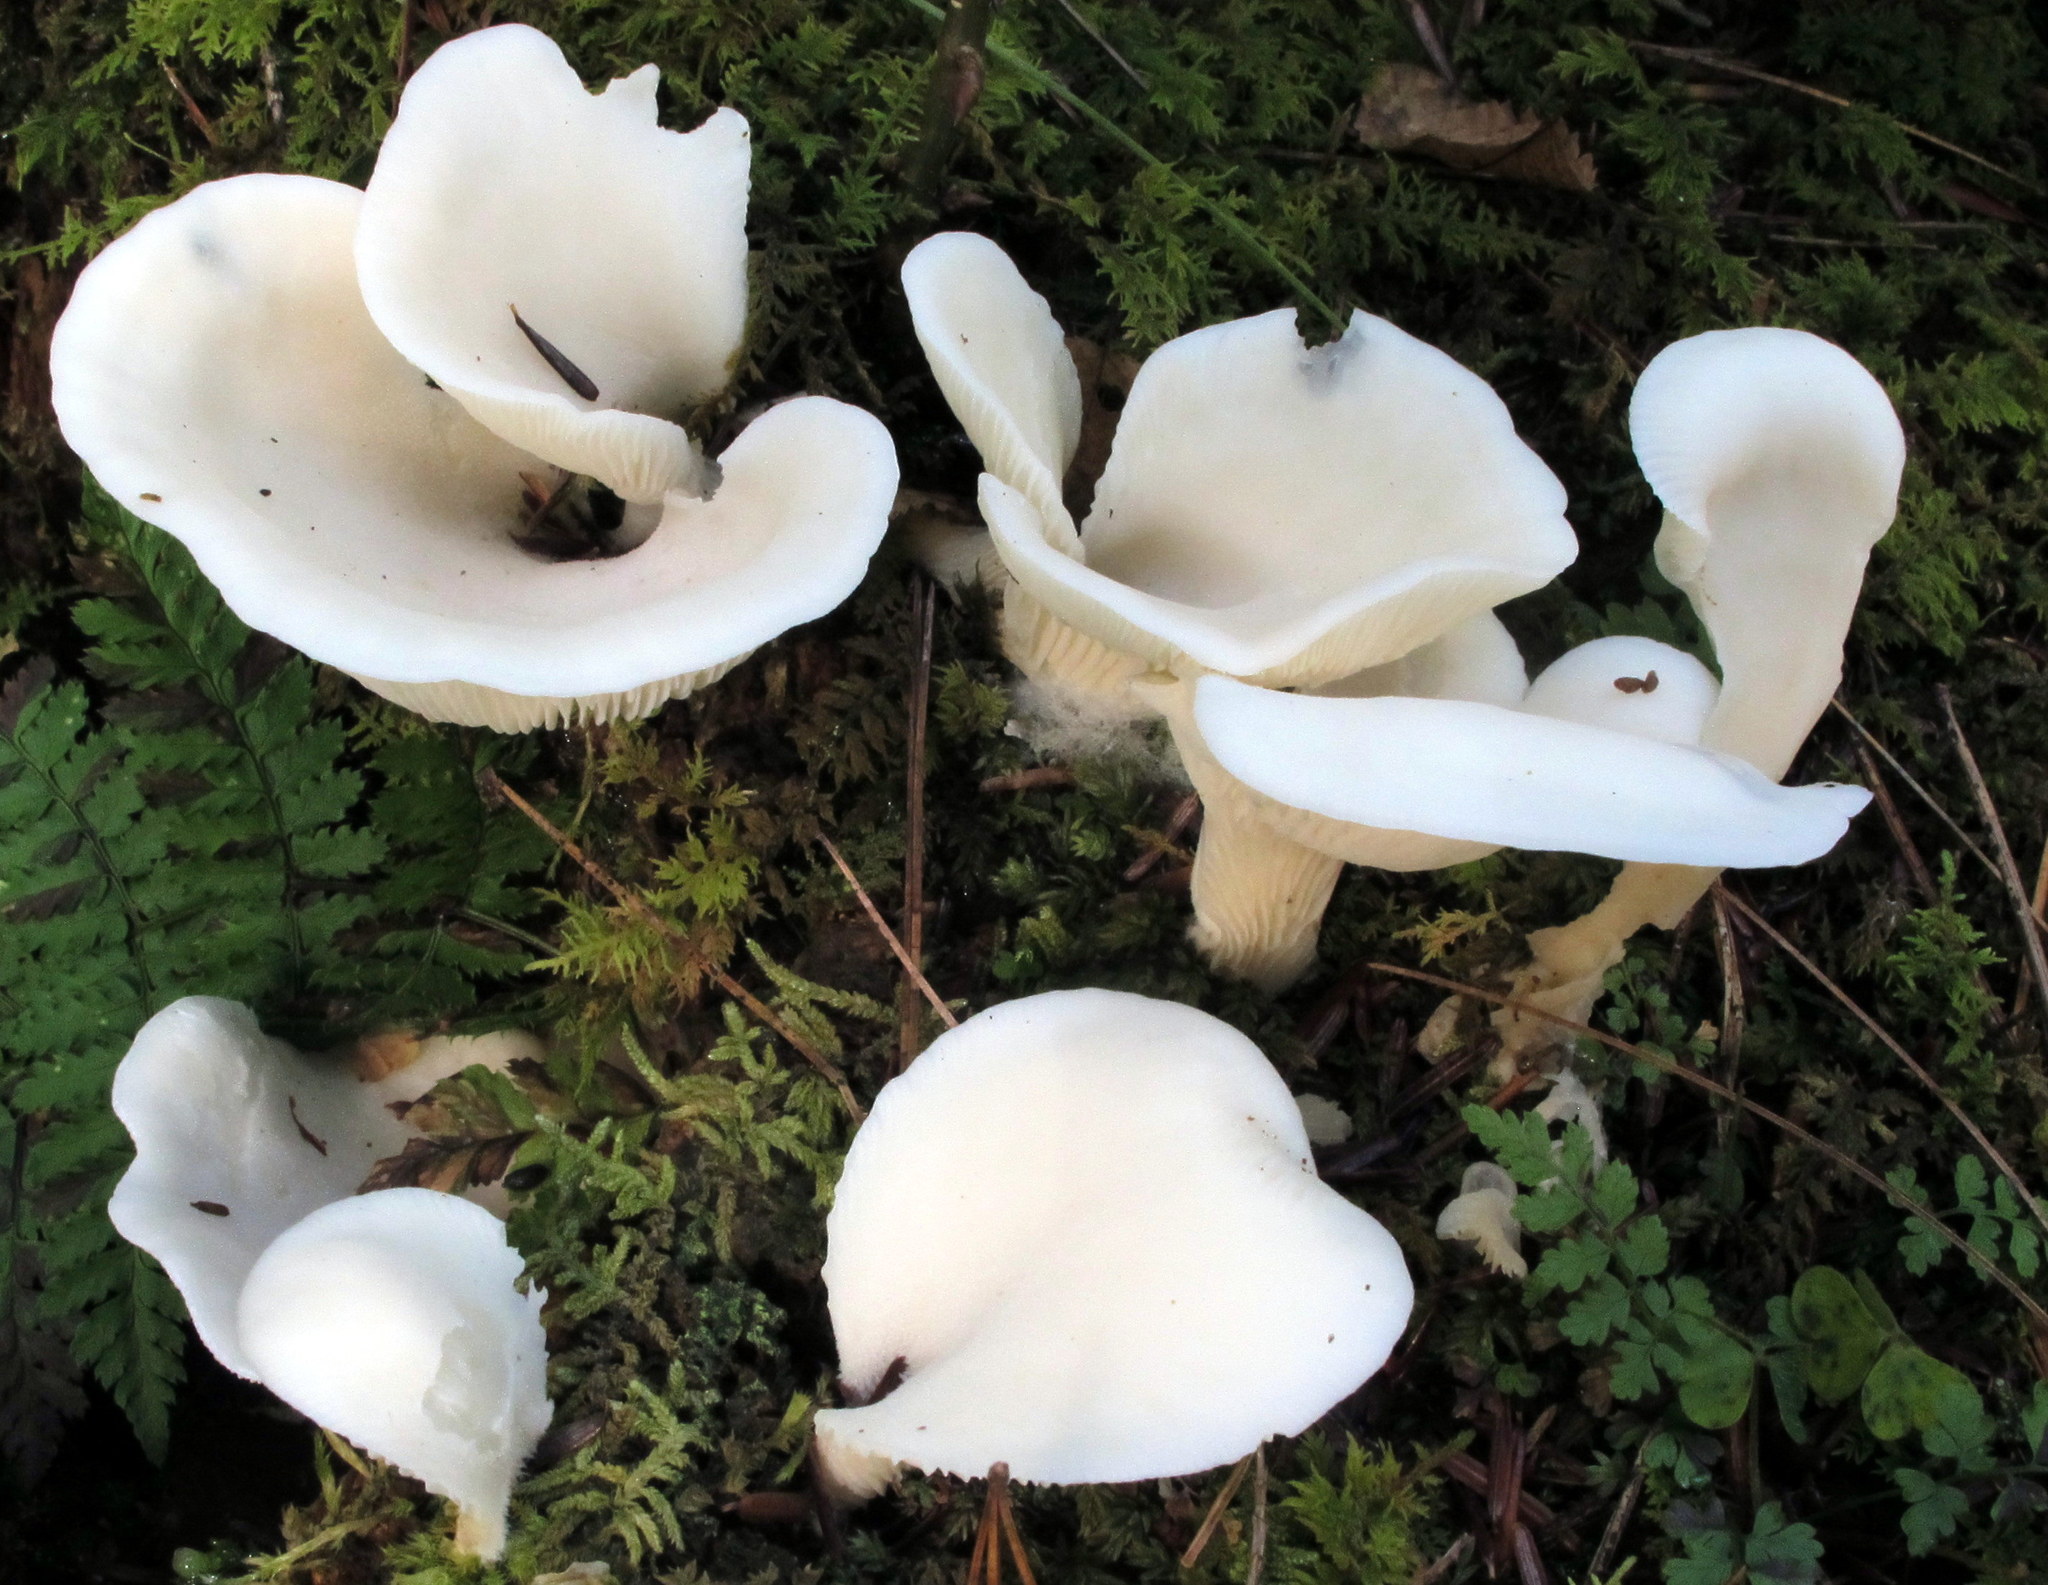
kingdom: Fungi
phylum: Basidiomycota
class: Agaricomycetes
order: Agaricales
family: Marasmiaceae
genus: Pleurocybella
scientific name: Pleurocybella porrigens
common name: Angel's wings
